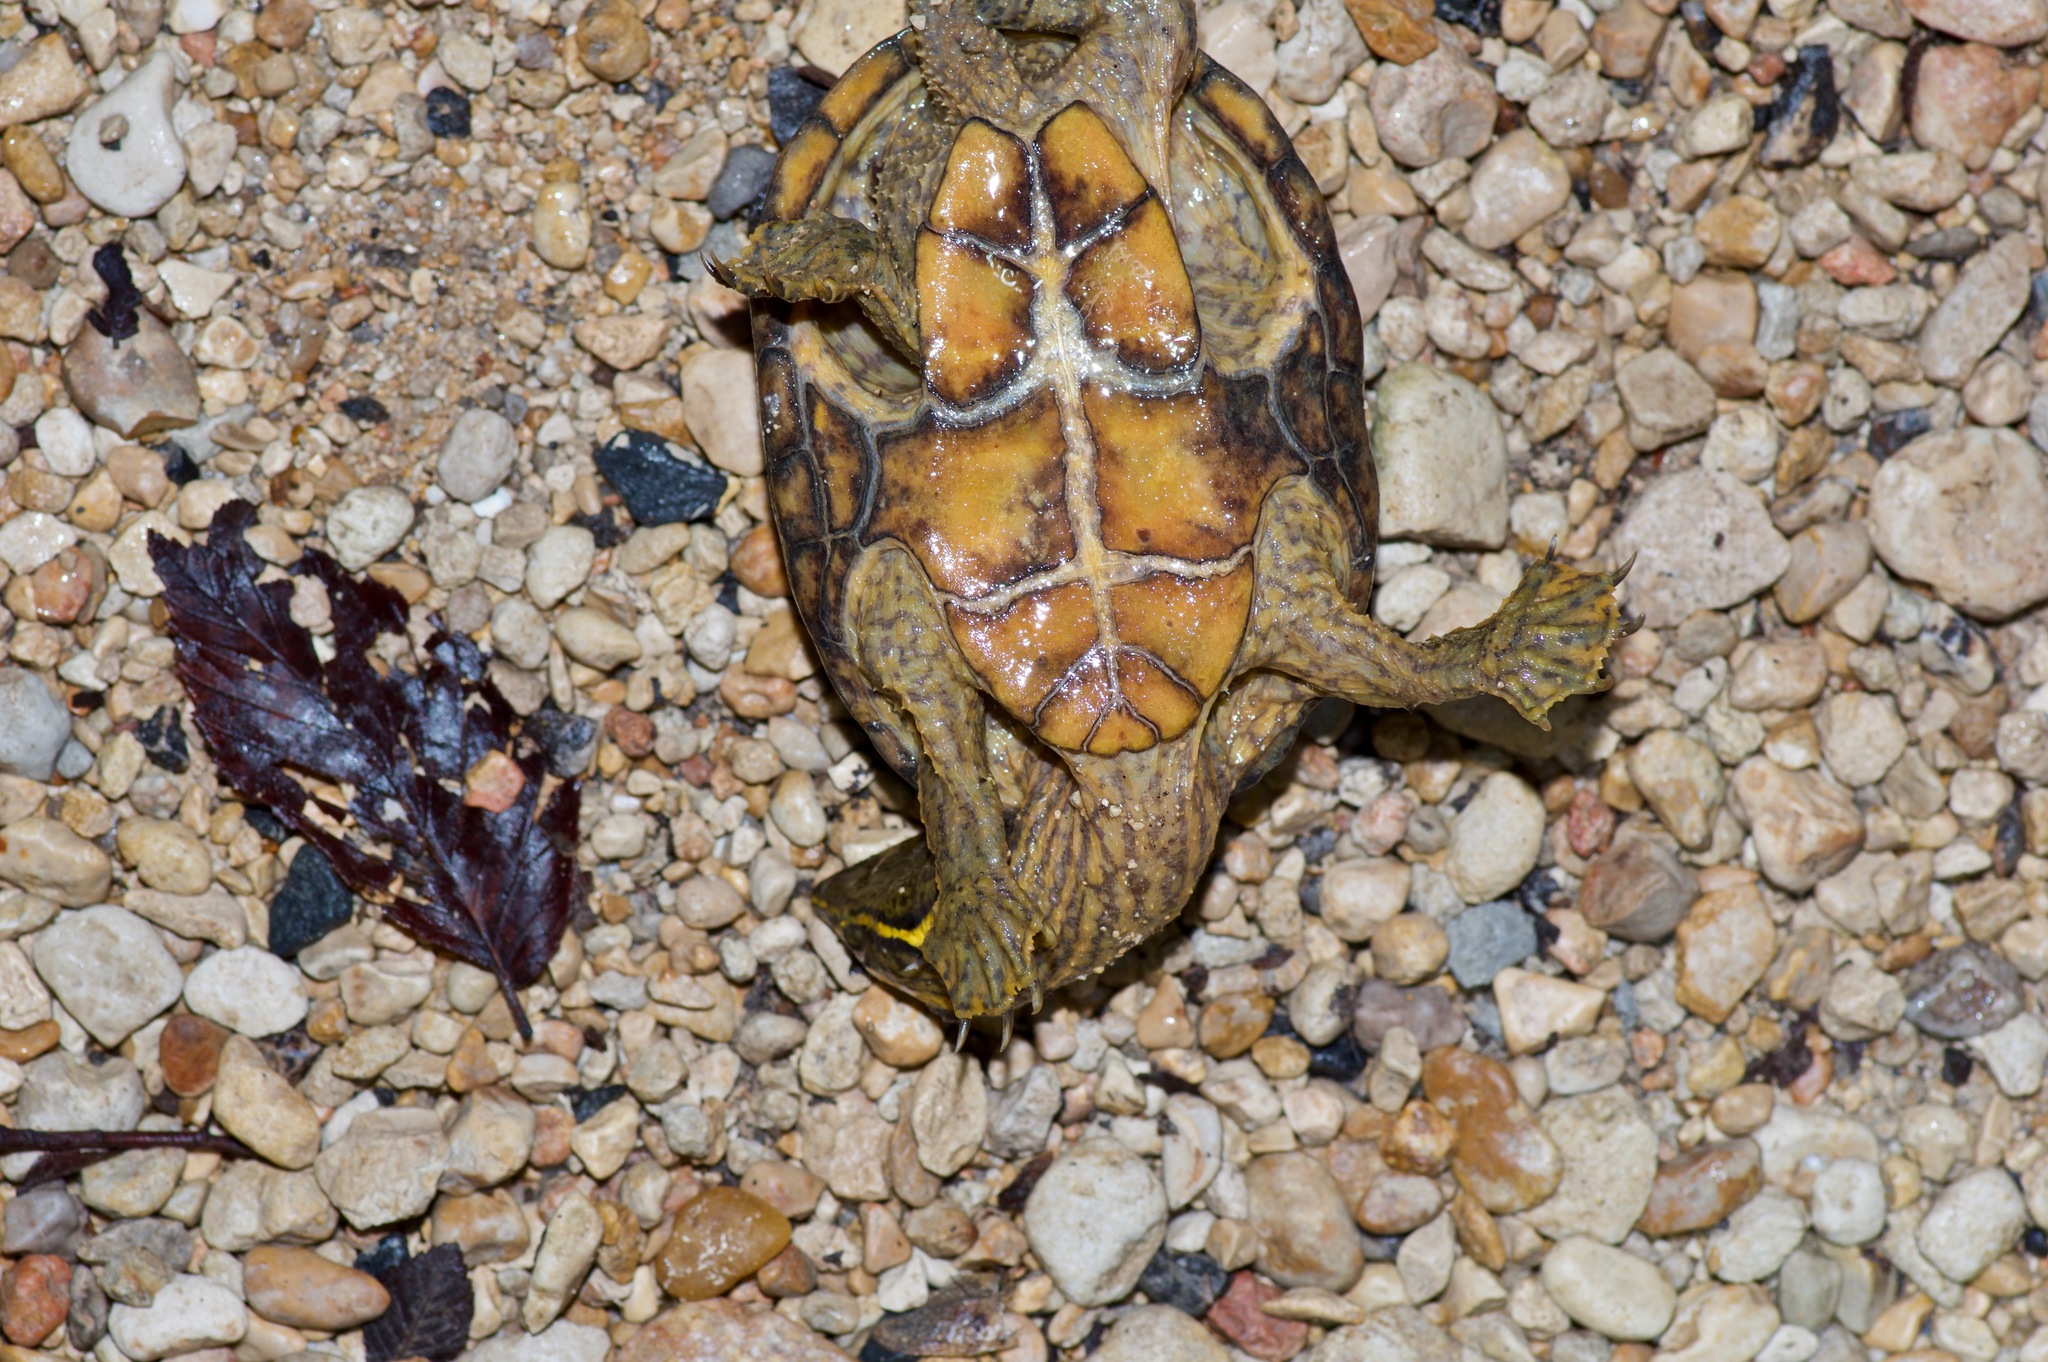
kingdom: Animalia
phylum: Chordata
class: Testudines
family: Kinosternidae
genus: Sternotherus
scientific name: Sternotherus odoratus
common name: Common musk turtle
